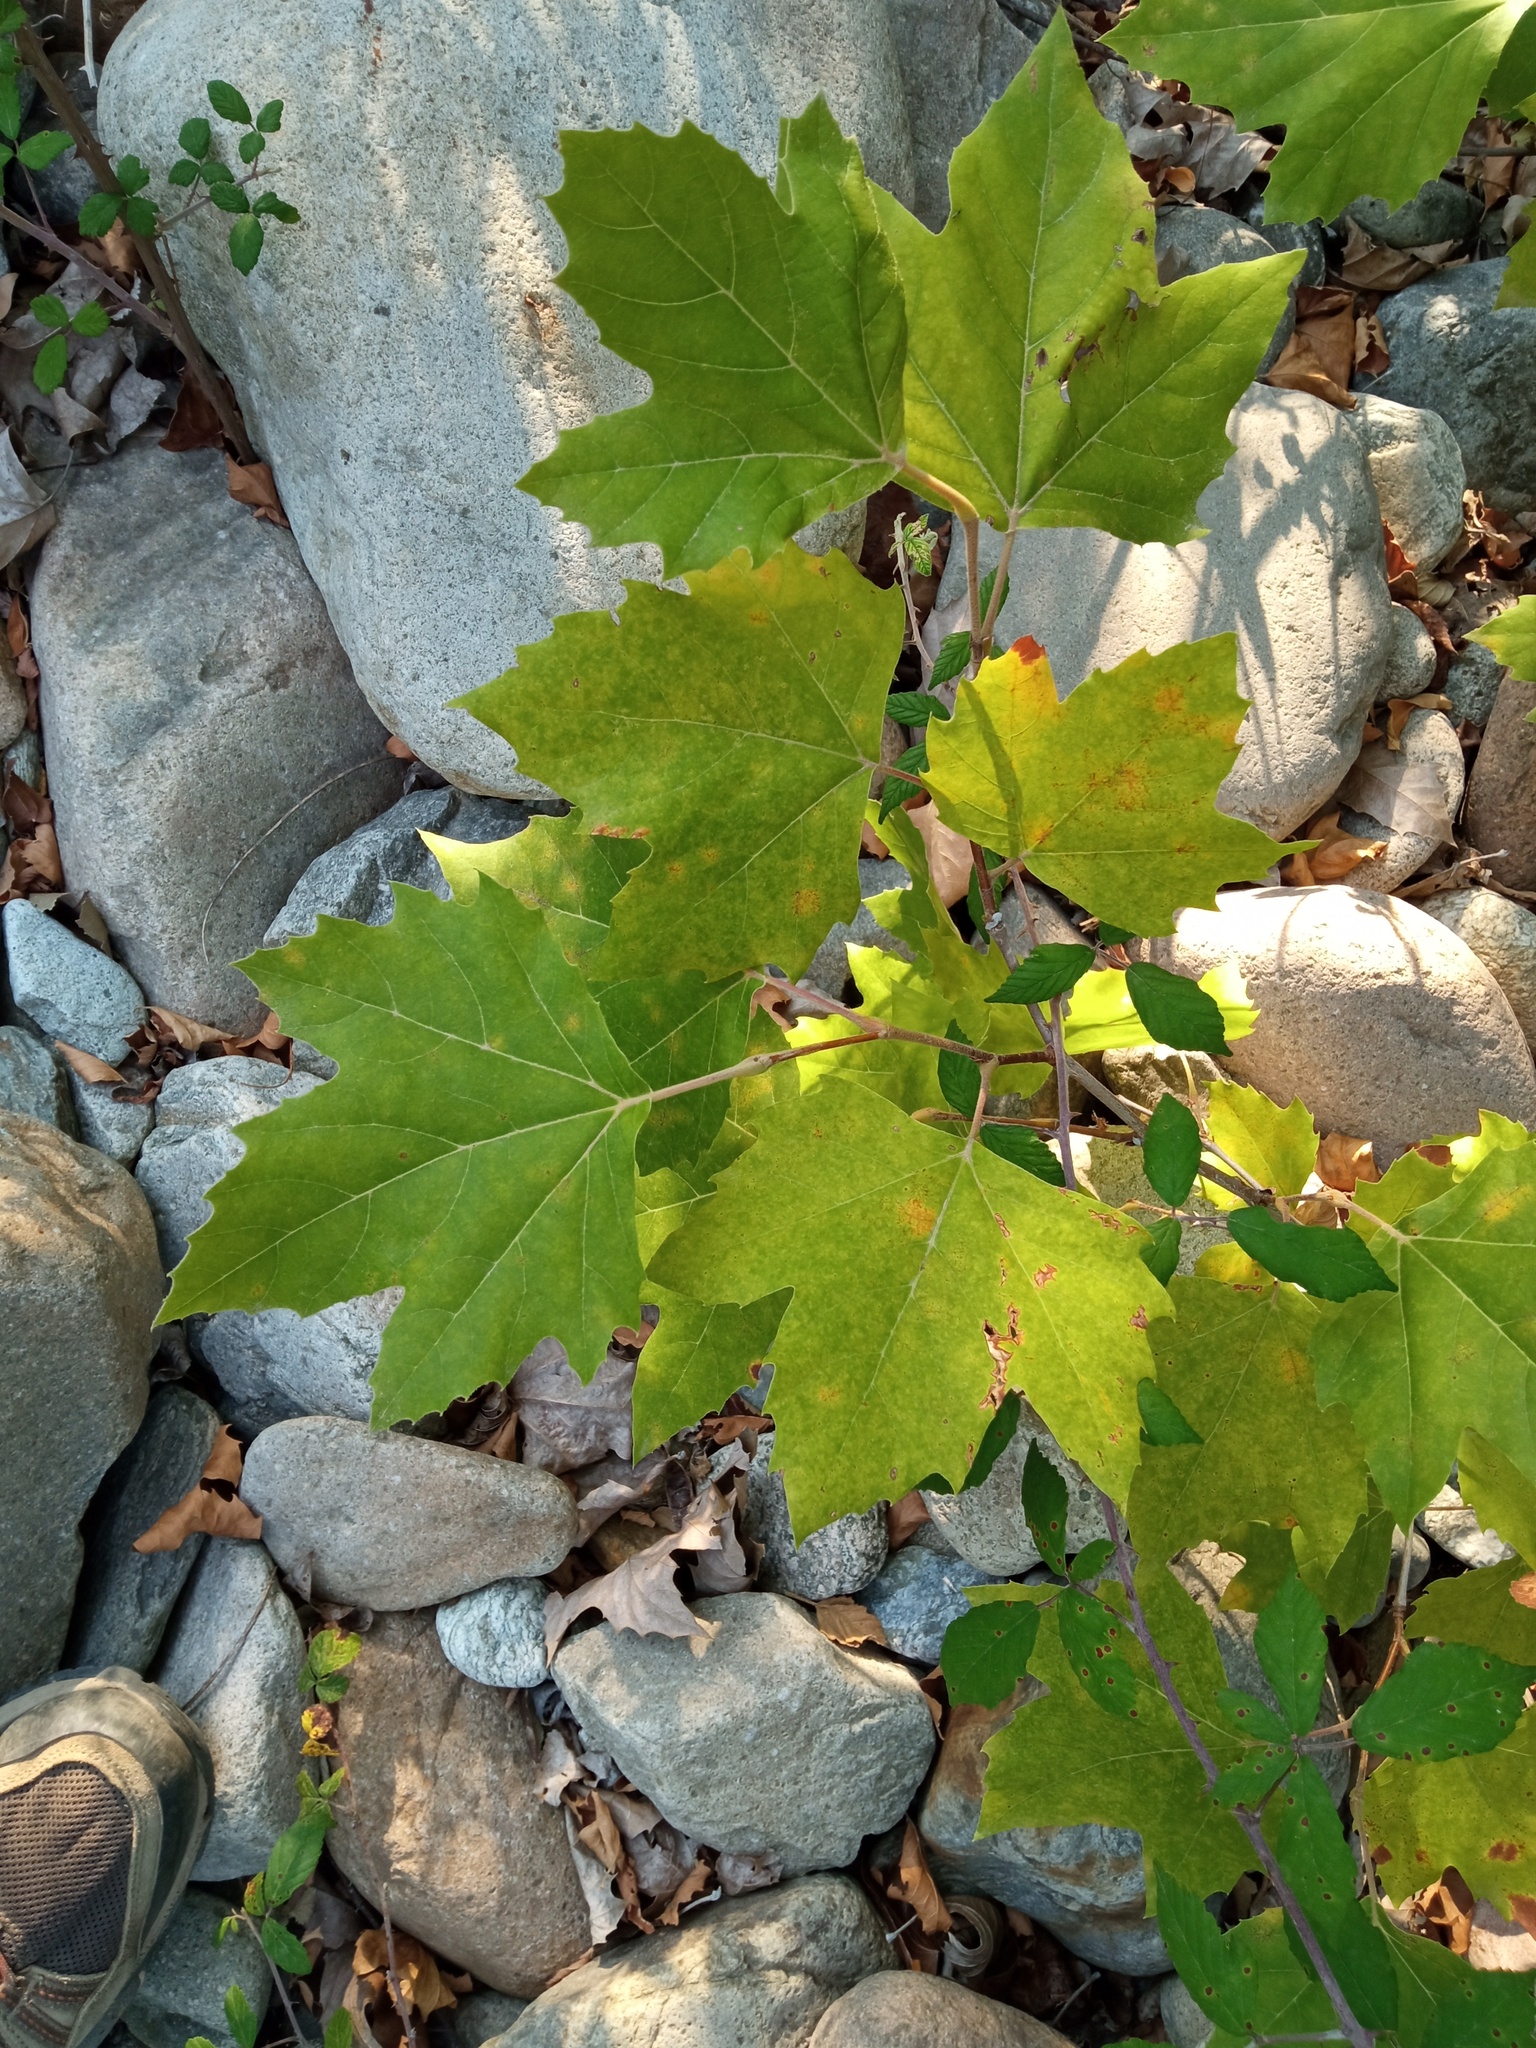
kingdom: Plantae
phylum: Tracheophyta
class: Magnoliopsida
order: Proteales
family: Platanaceae
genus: Platanus
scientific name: Platanus hispanica
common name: London plane
